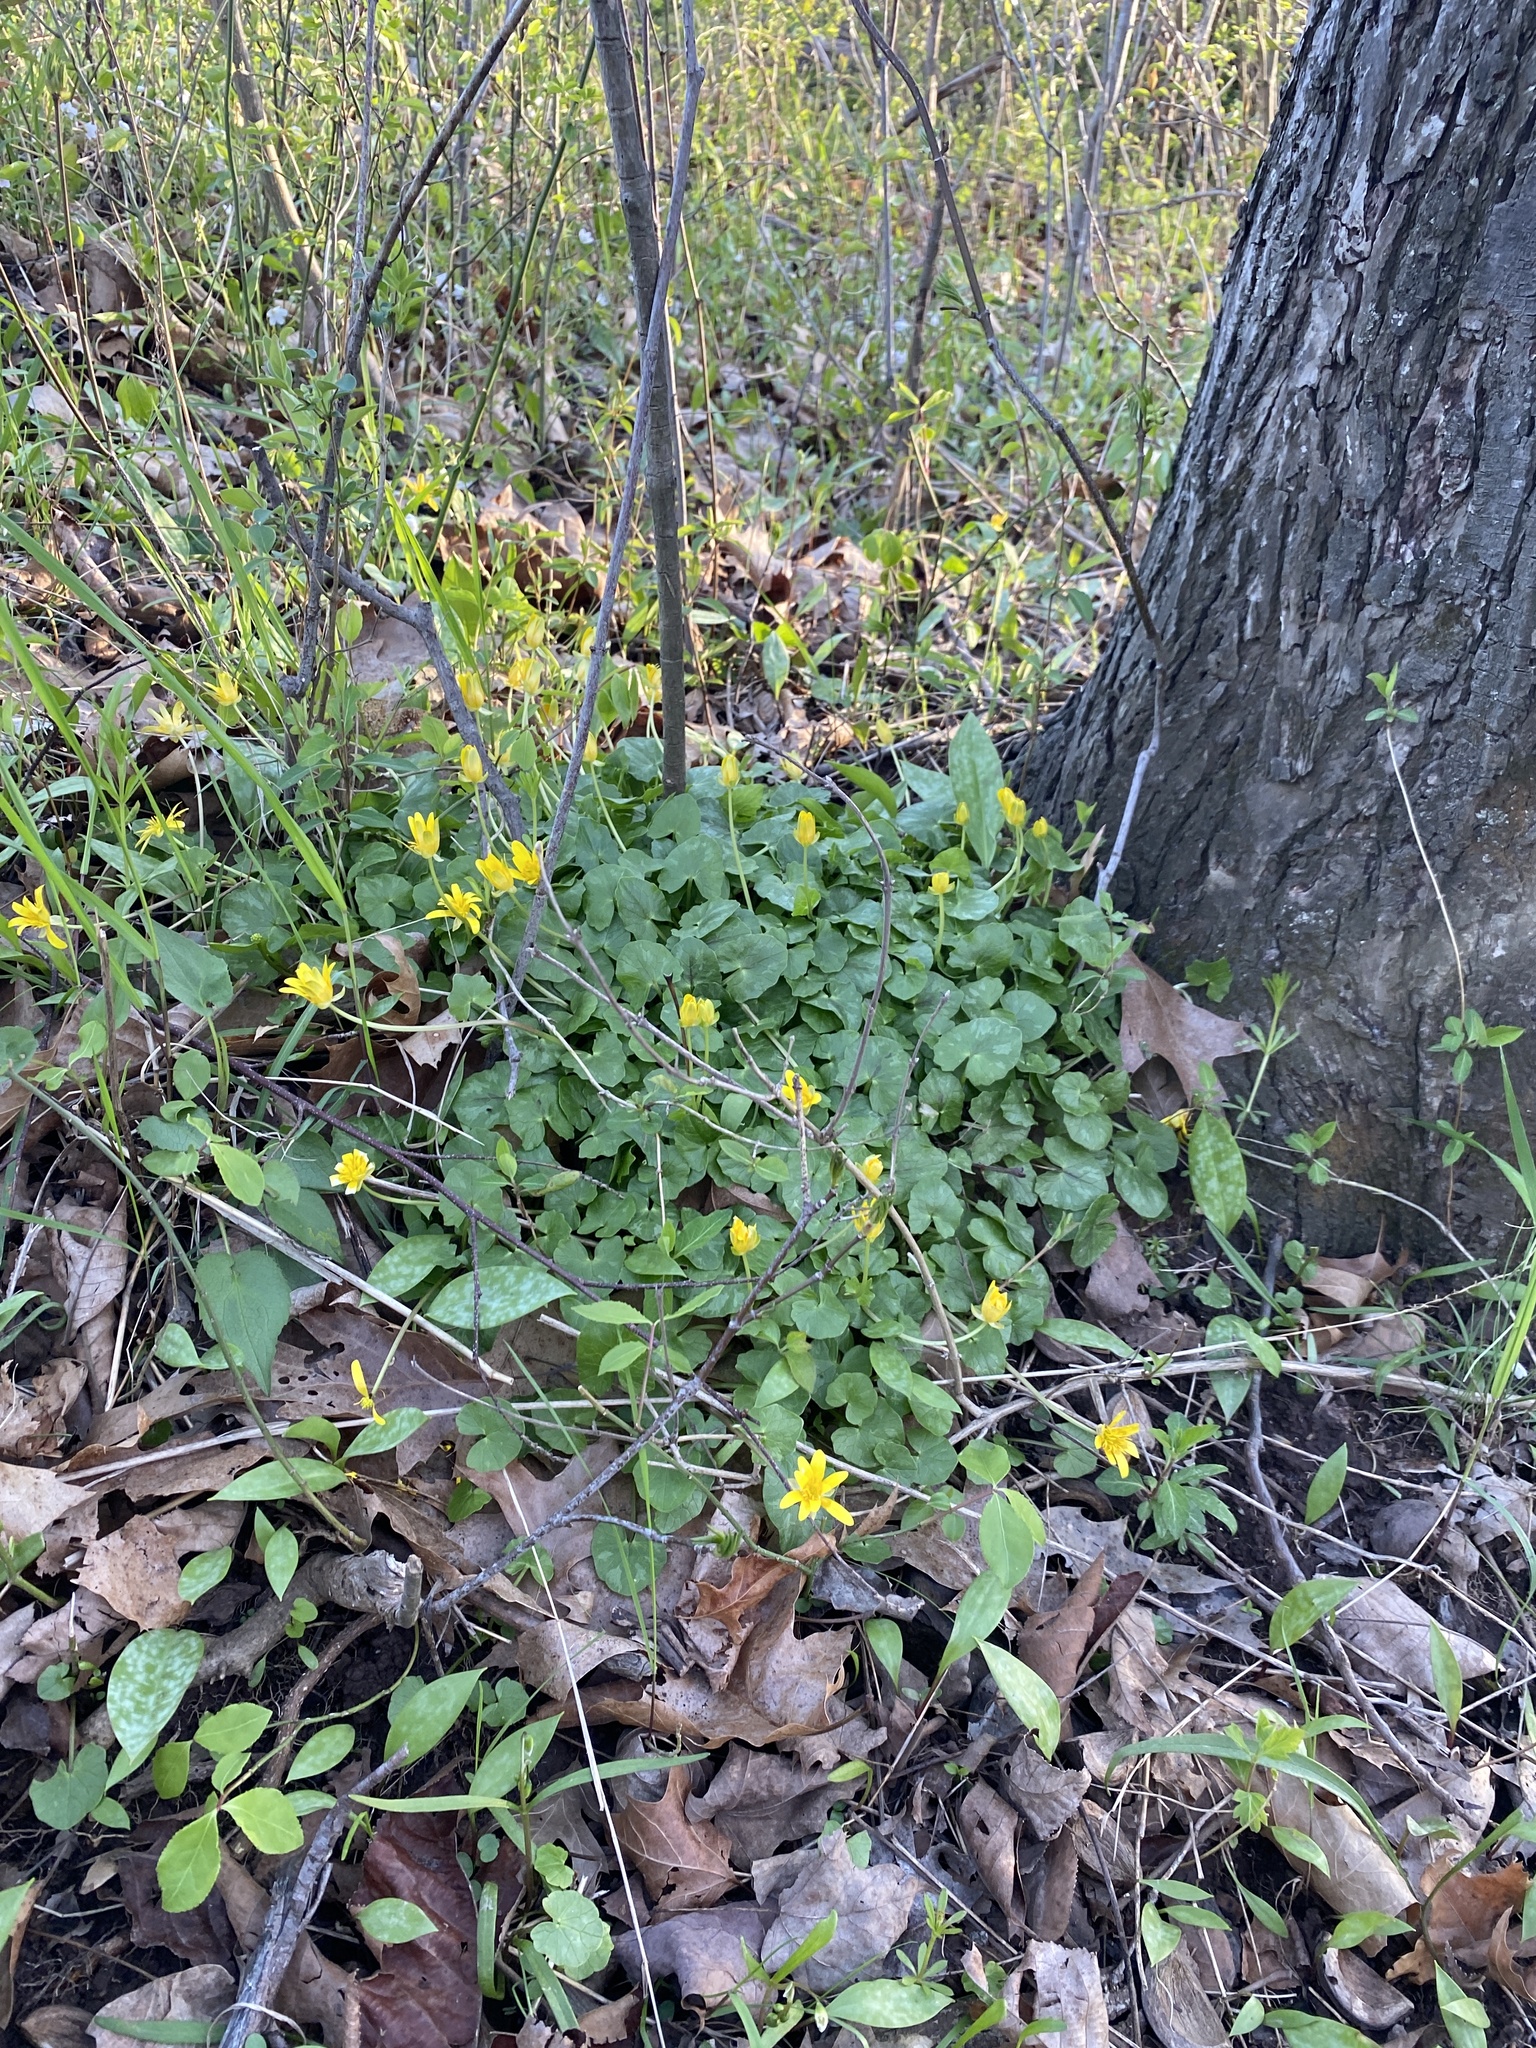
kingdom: Plantae
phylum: Tracheophyta
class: Magnoliopsida
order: Ranunculales
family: Ranunculaceae
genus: Ficaria
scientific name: Ficaria verna
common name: Lesser celandine
